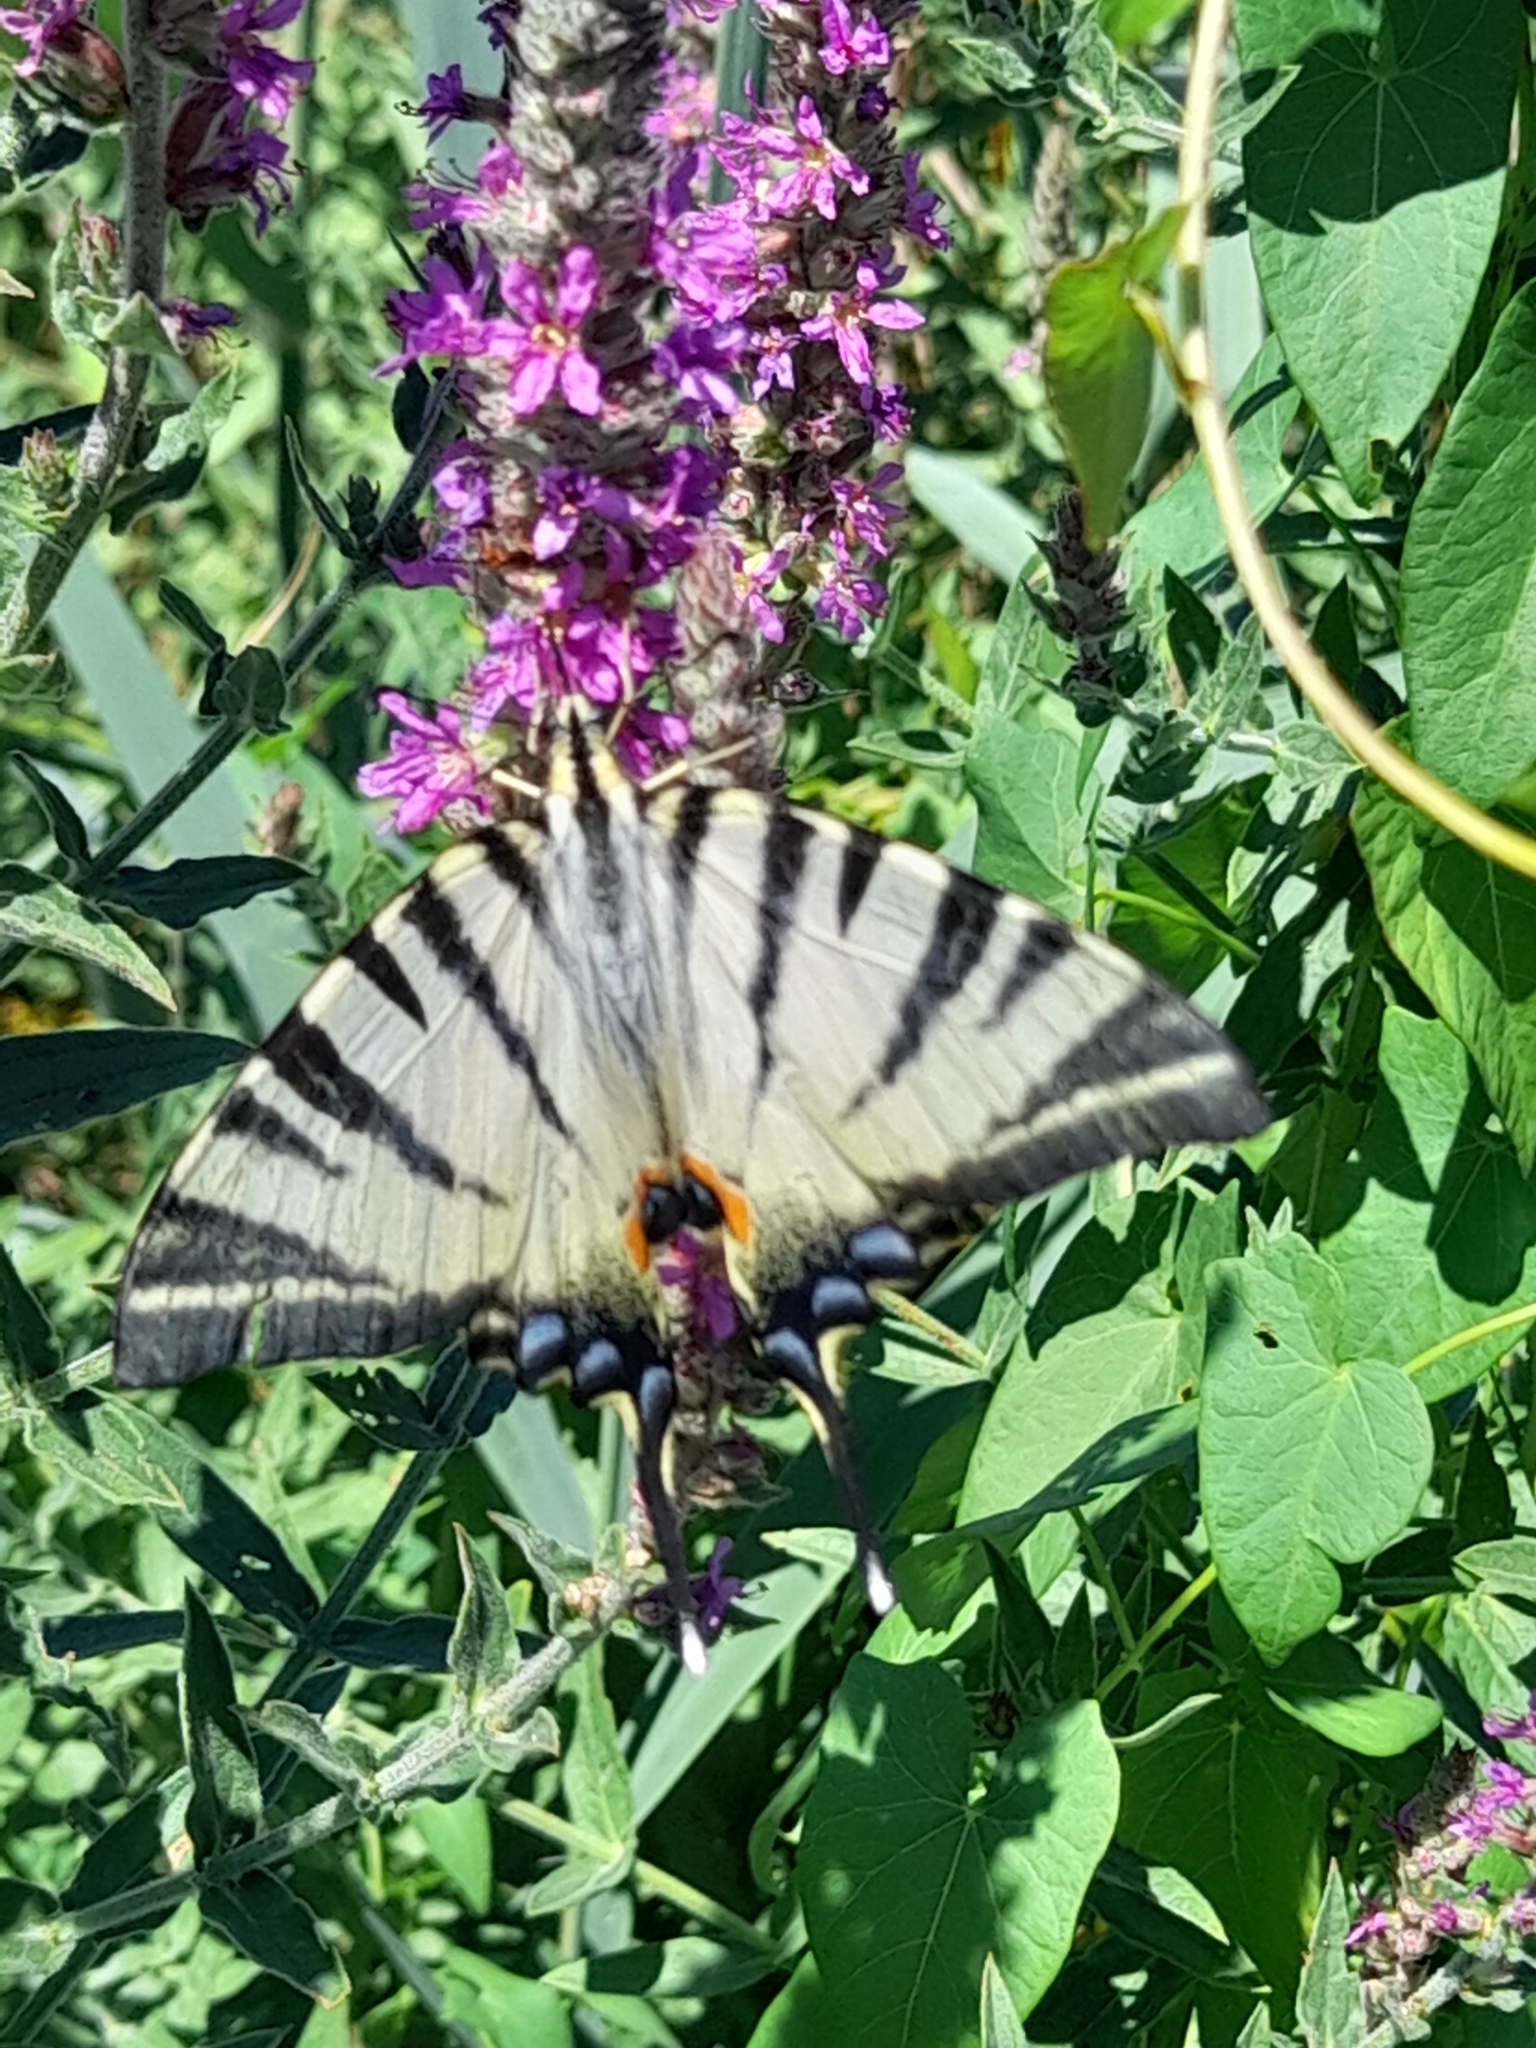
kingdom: Animalia
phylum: Arthropoda
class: Insecta
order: Lepidoptera
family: Papilionidae
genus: Iphiclides
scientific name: Iphiclides podalirius
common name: Scarce swallowtail
